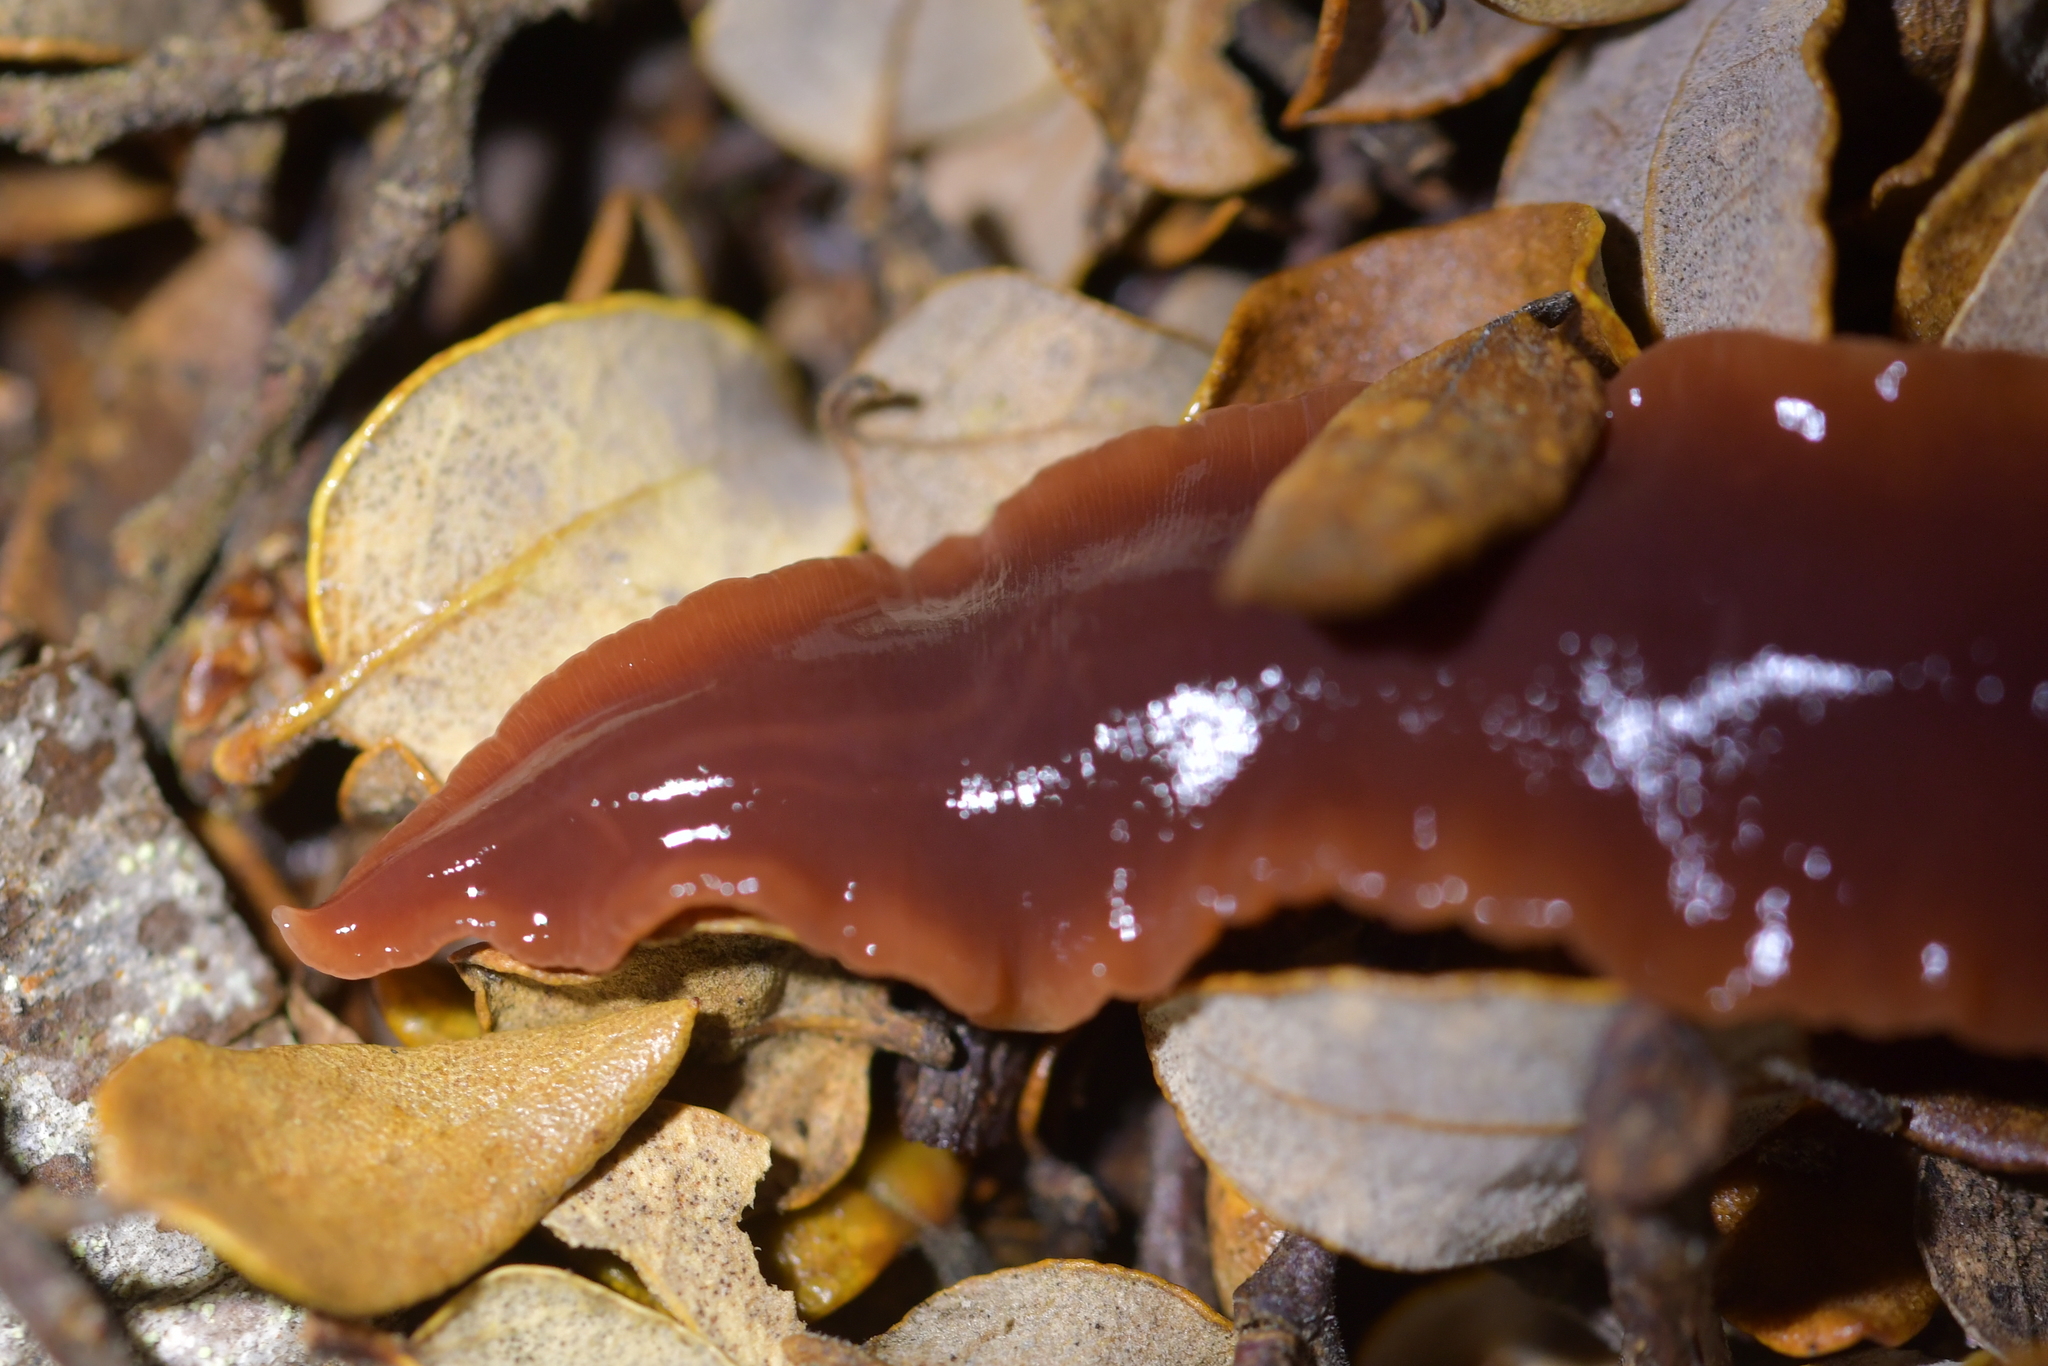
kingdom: Animalia
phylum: Platyhelminthes
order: Tricladida
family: Geoplanidae
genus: Arthurdendyus
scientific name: Arthurdendyus latissimus
